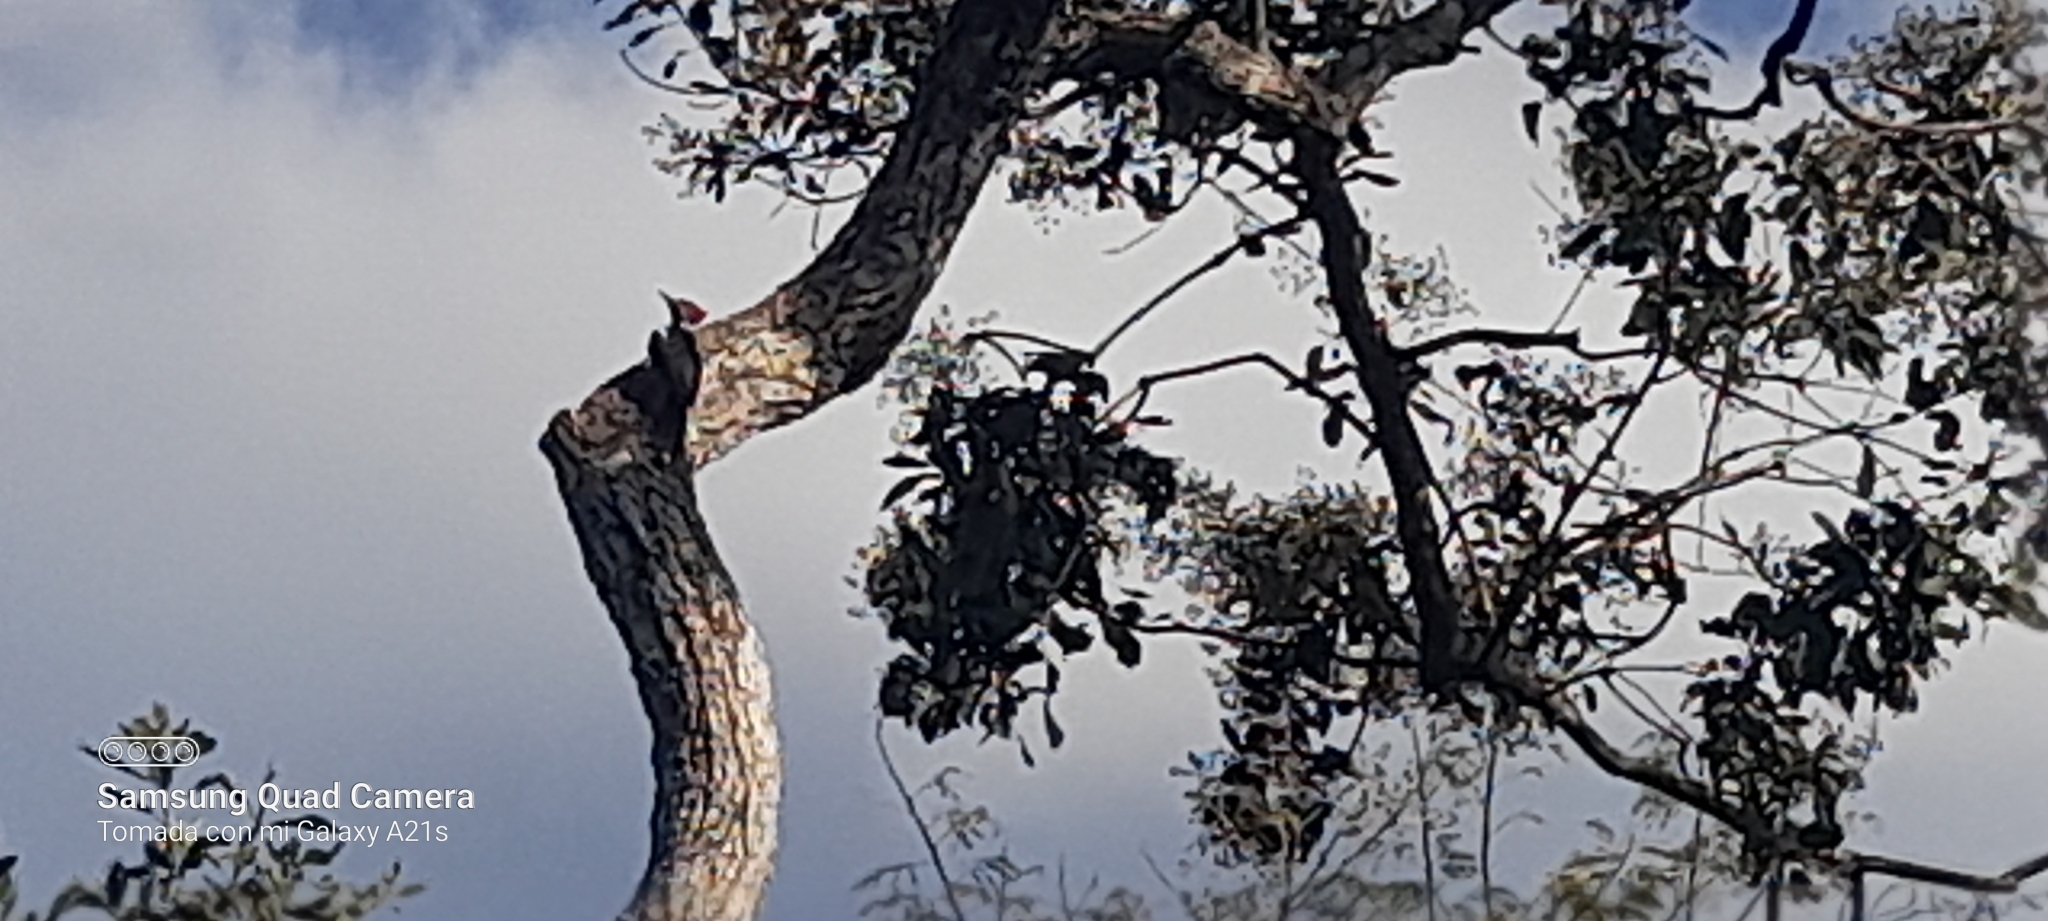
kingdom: Animalia
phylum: Chordata
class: Aves
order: Piciformes
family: Picidae
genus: Dryocopus
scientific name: Dryocopus lineatus
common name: Lineated woodpecker
